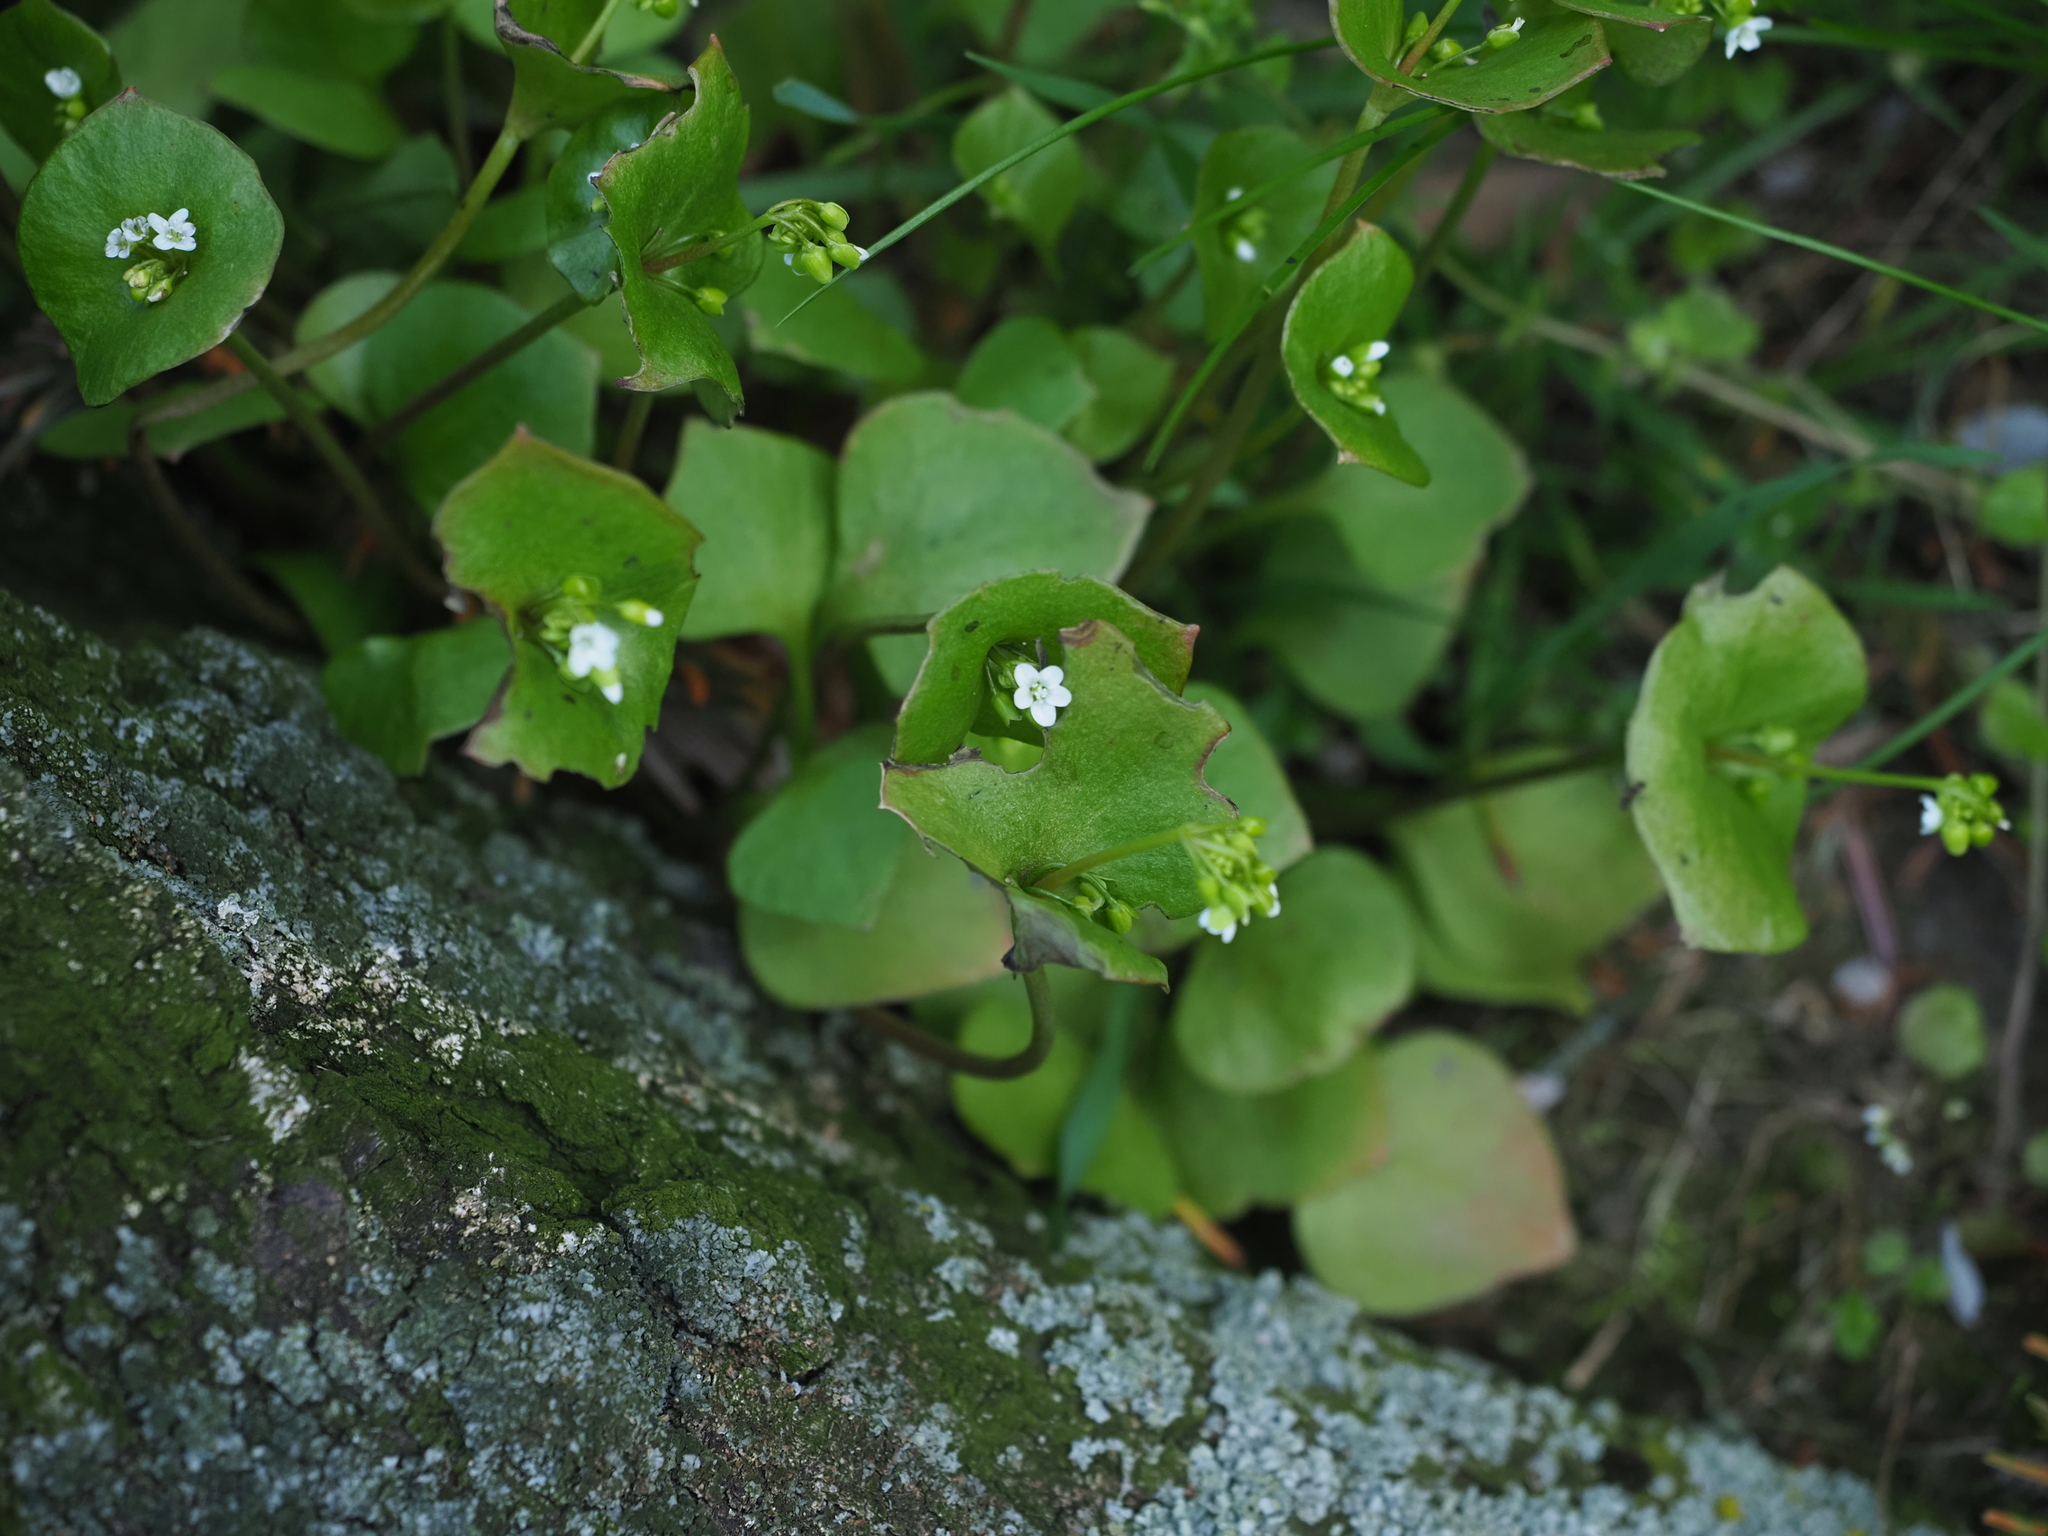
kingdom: Plantae
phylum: Tracheophyta
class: Magnoliopsida
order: Caryophyllales
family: Montiaceae
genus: Claytonia
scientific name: Claytonia perfoliata
